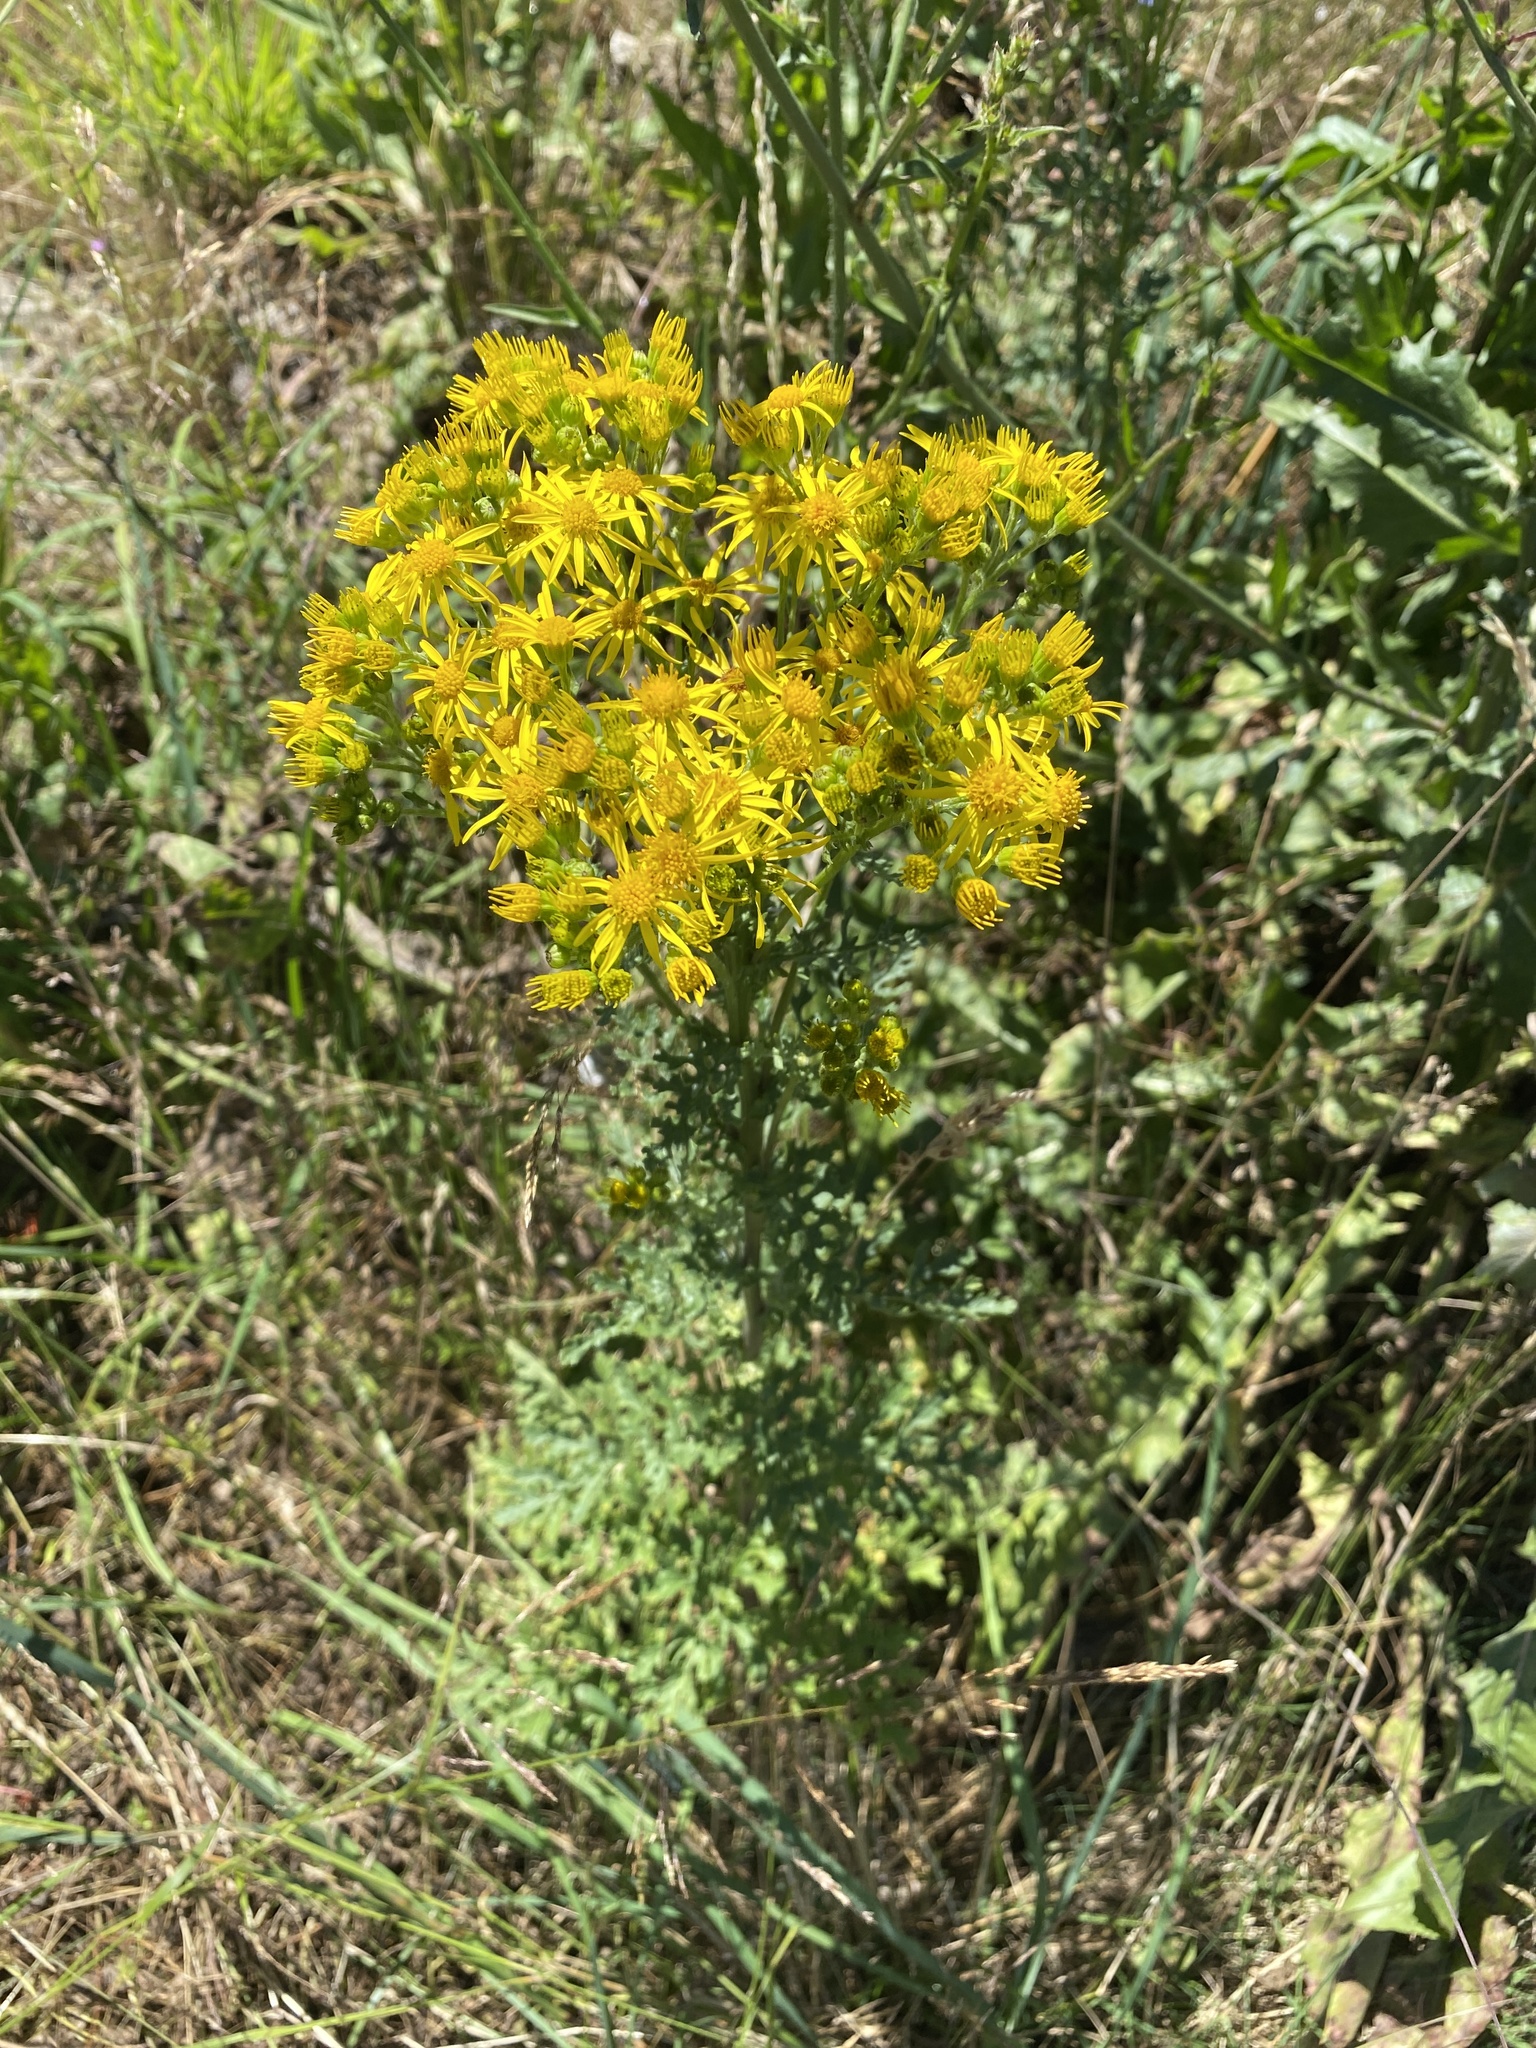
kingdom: Plantae
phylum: Tracheophyta
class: Magnoliopsida
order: Asterales
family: Asteraceae
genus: Jacobaea
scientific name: Jacobaea vulgaris
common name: Stinking willie
